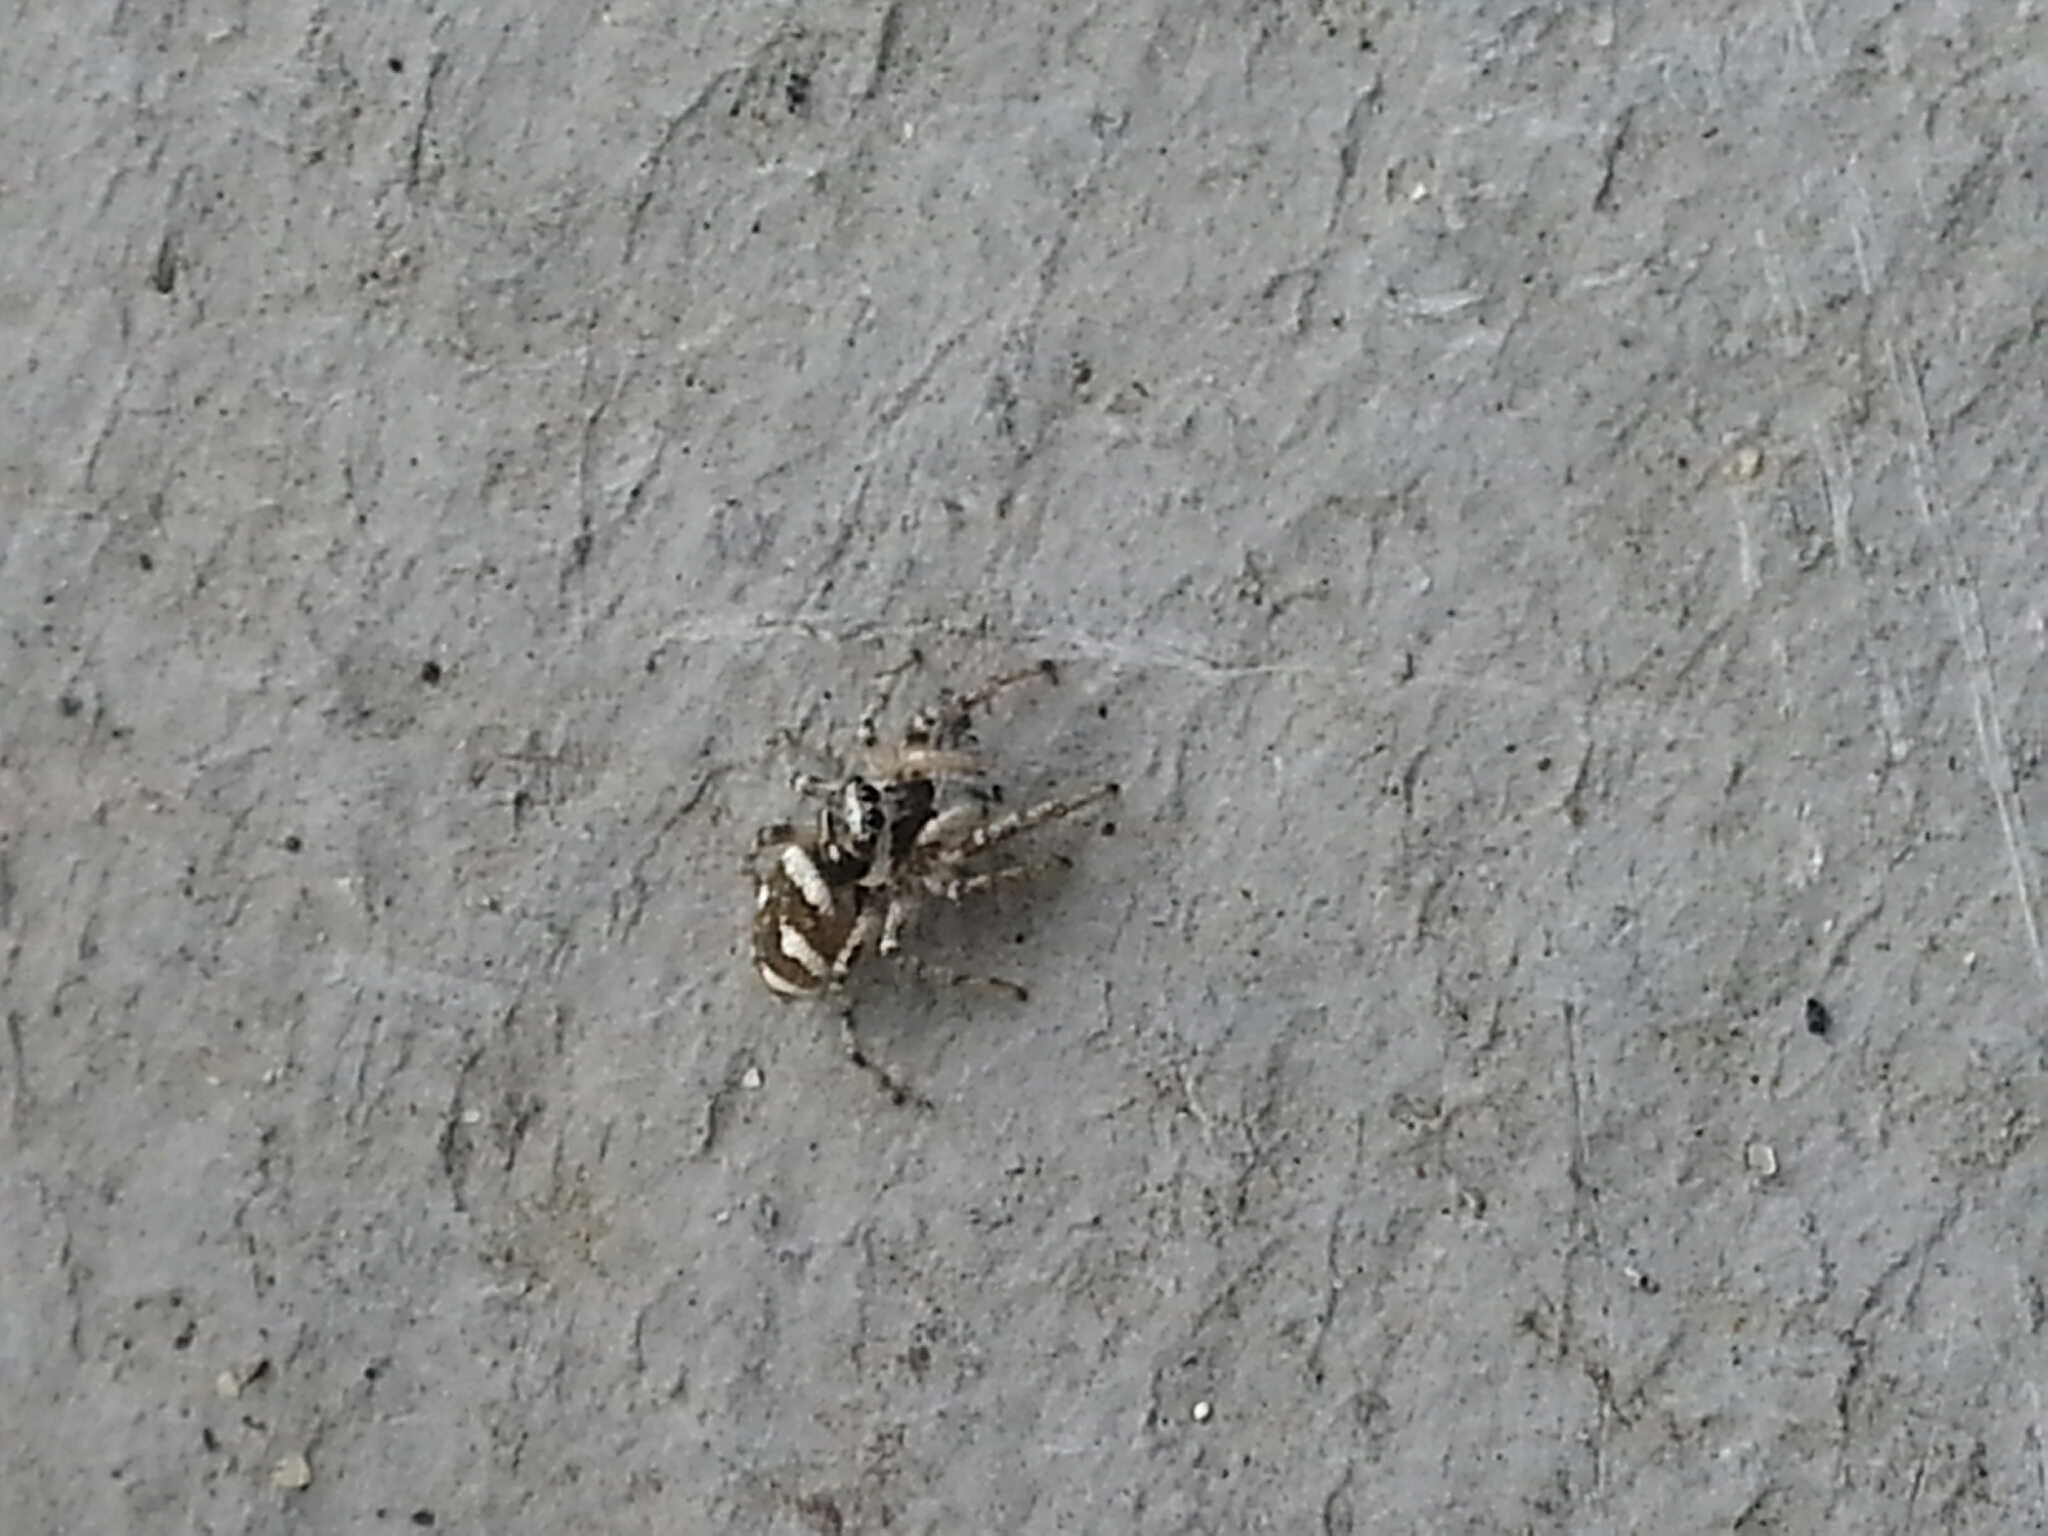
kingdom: Animalia
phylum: Arthropoda
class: Arachnida
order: Araneae
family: Salticidae
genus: Salticus
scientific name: Salticus scenicus
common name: Zebra jumper
